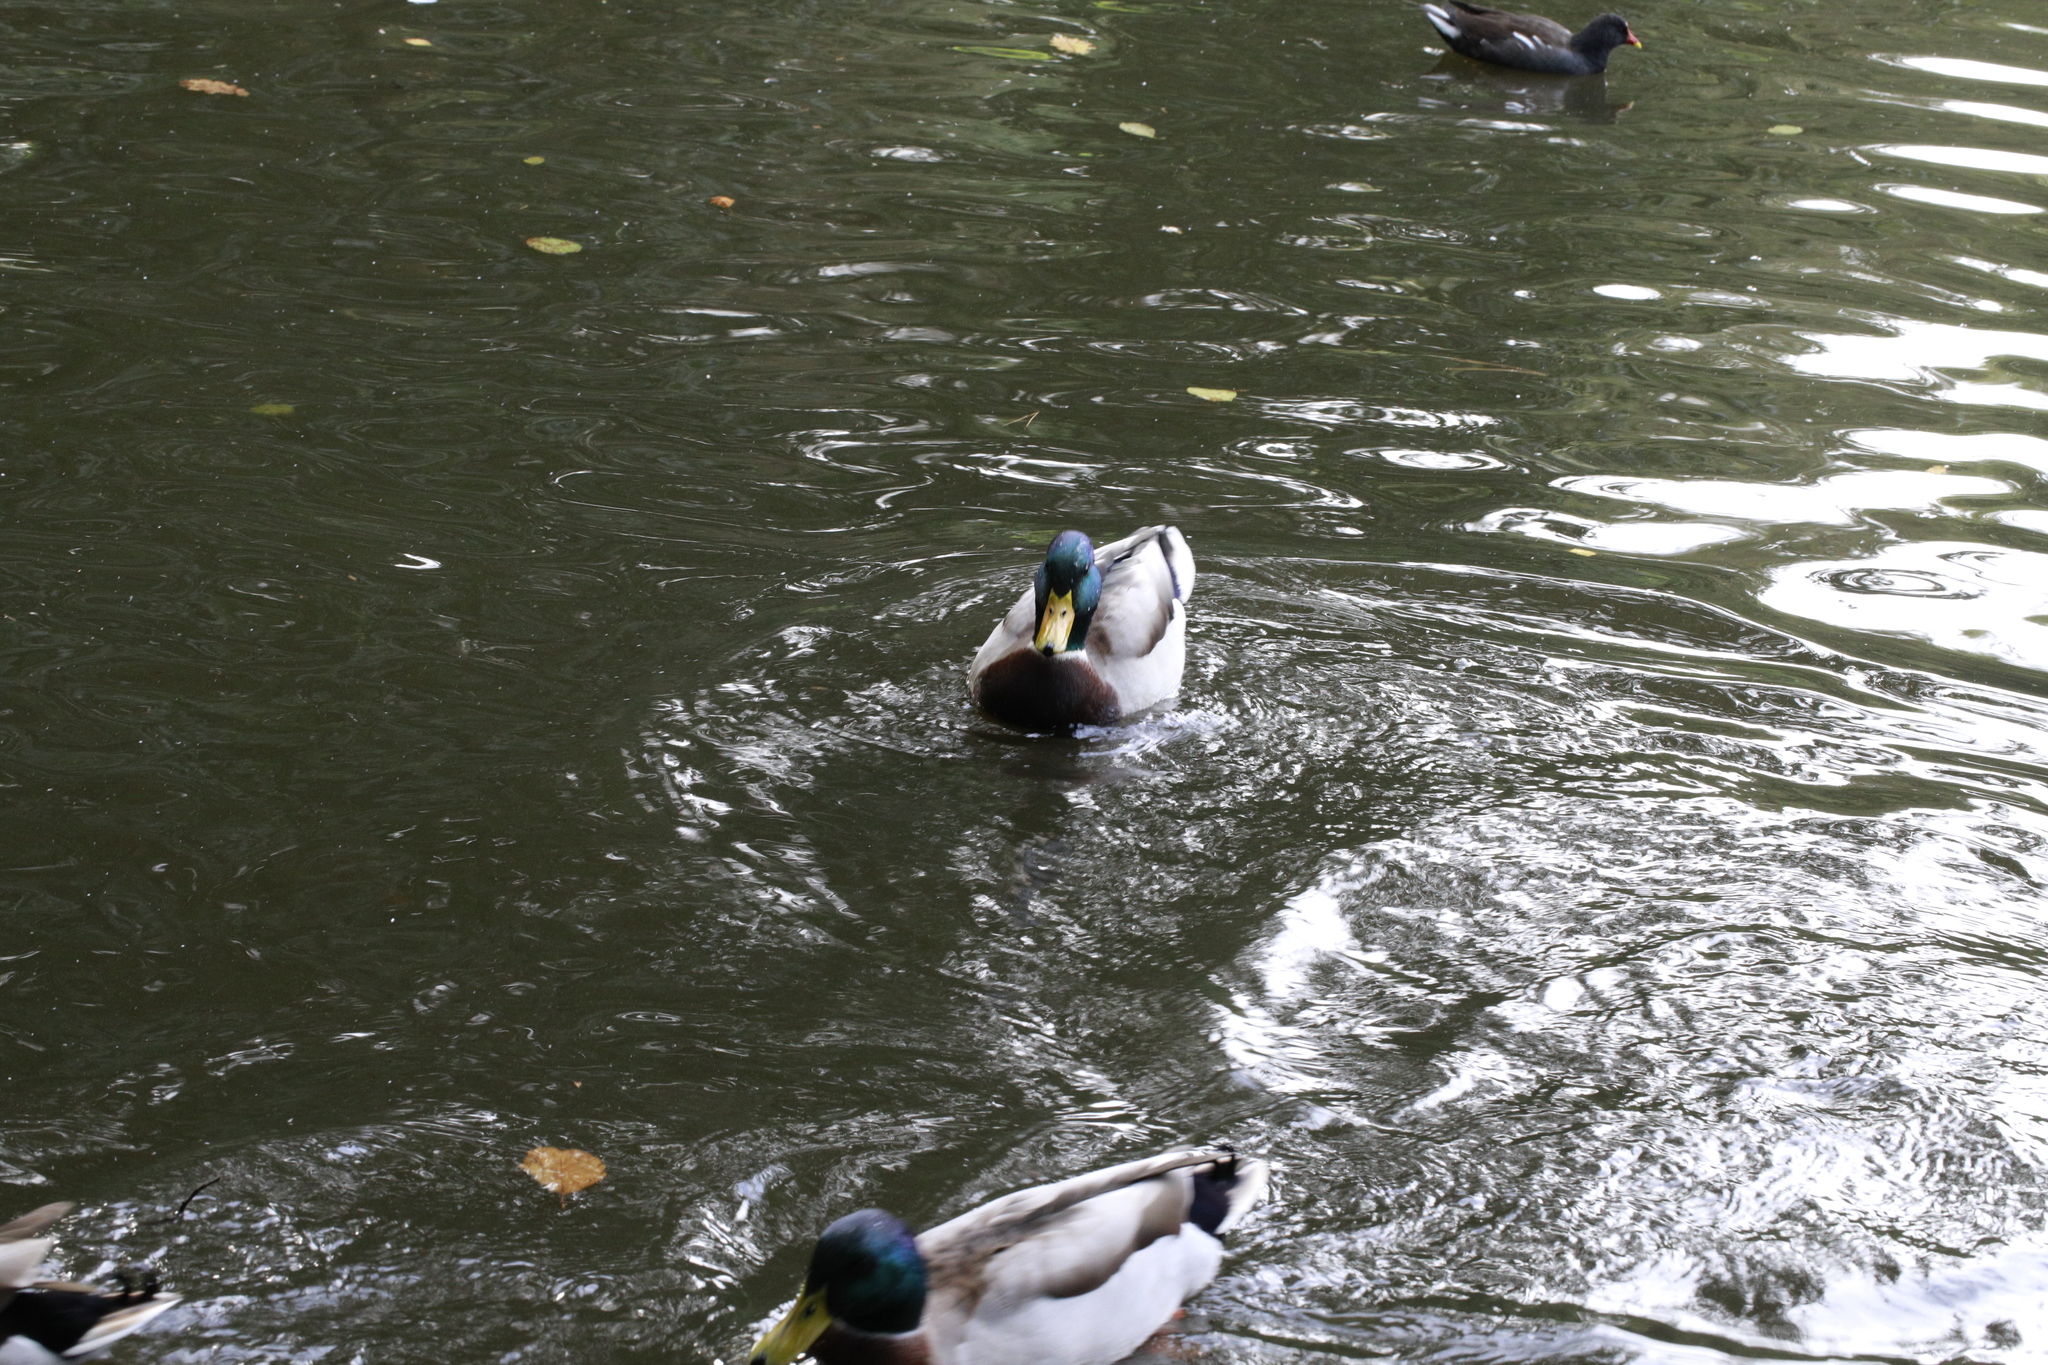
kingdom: Animalia
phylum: Chordata
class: Aves
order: Anseriformes
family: Anatidae
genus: Anas
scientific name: Anas platyrhynchos
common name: Mallard
